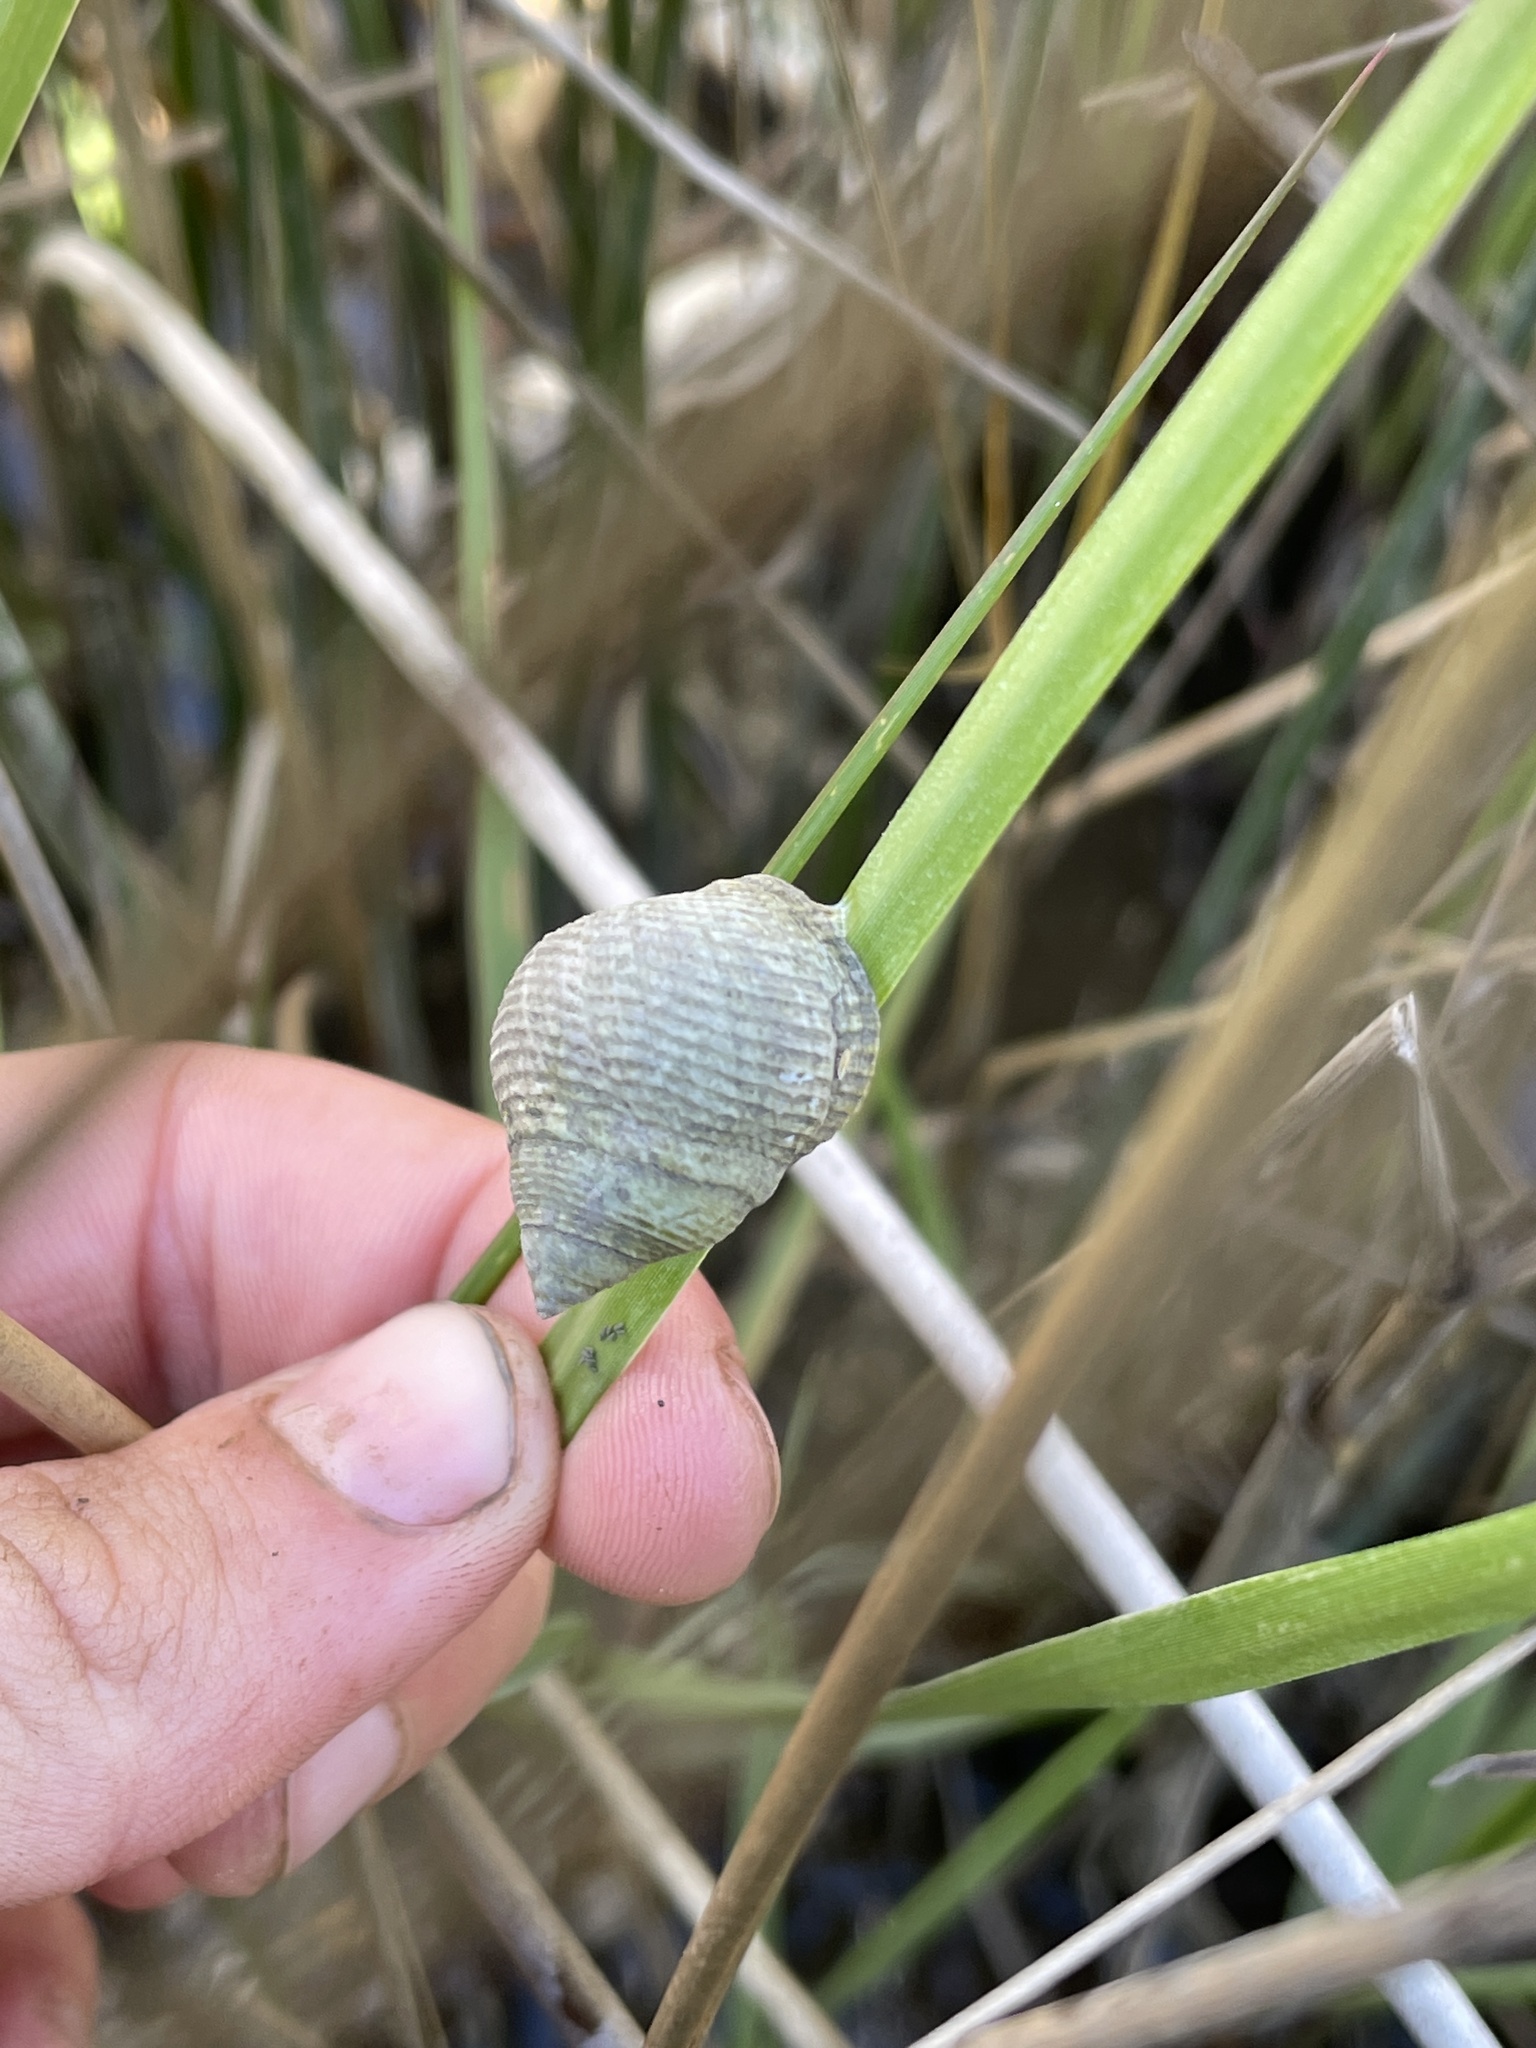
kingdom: Animalia
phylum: Mollusca
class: Gastropoda
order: Littorinimorpha
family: Littorinidae
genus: Littoraria
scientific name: Littoraria irrorata
